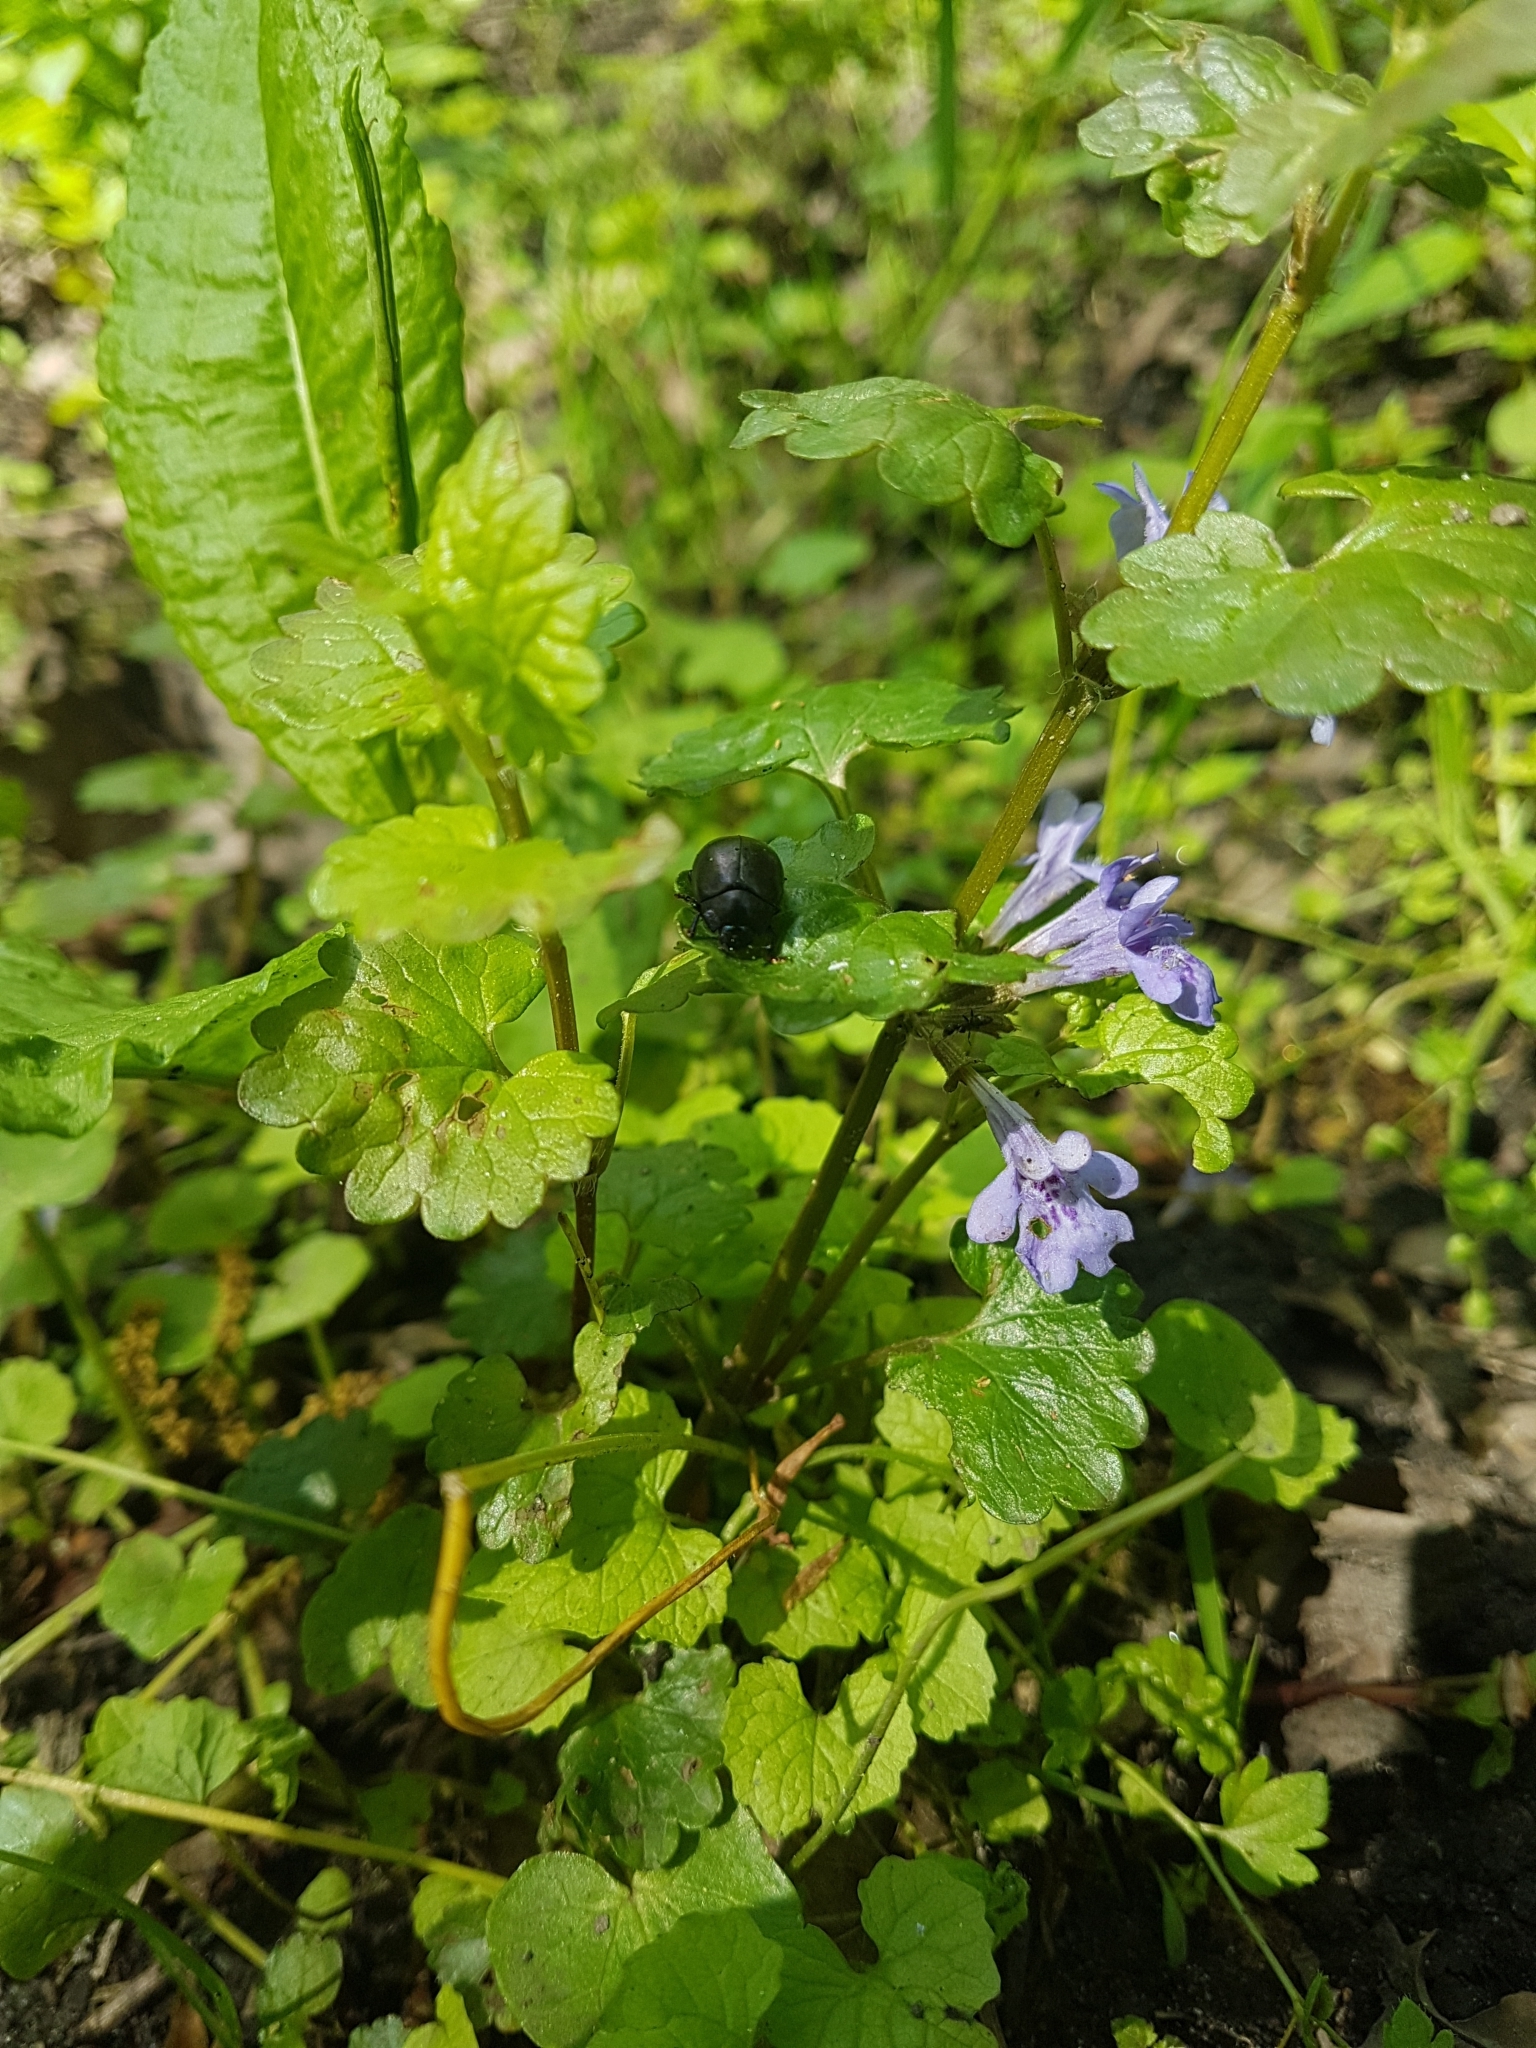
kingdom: Plantae
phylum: Tracheophyta
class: Magnoliopsida
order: Lamiales
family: Lamiaceae
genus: Glechoma
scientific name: Glechoma hederacea
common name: Ground ivy
